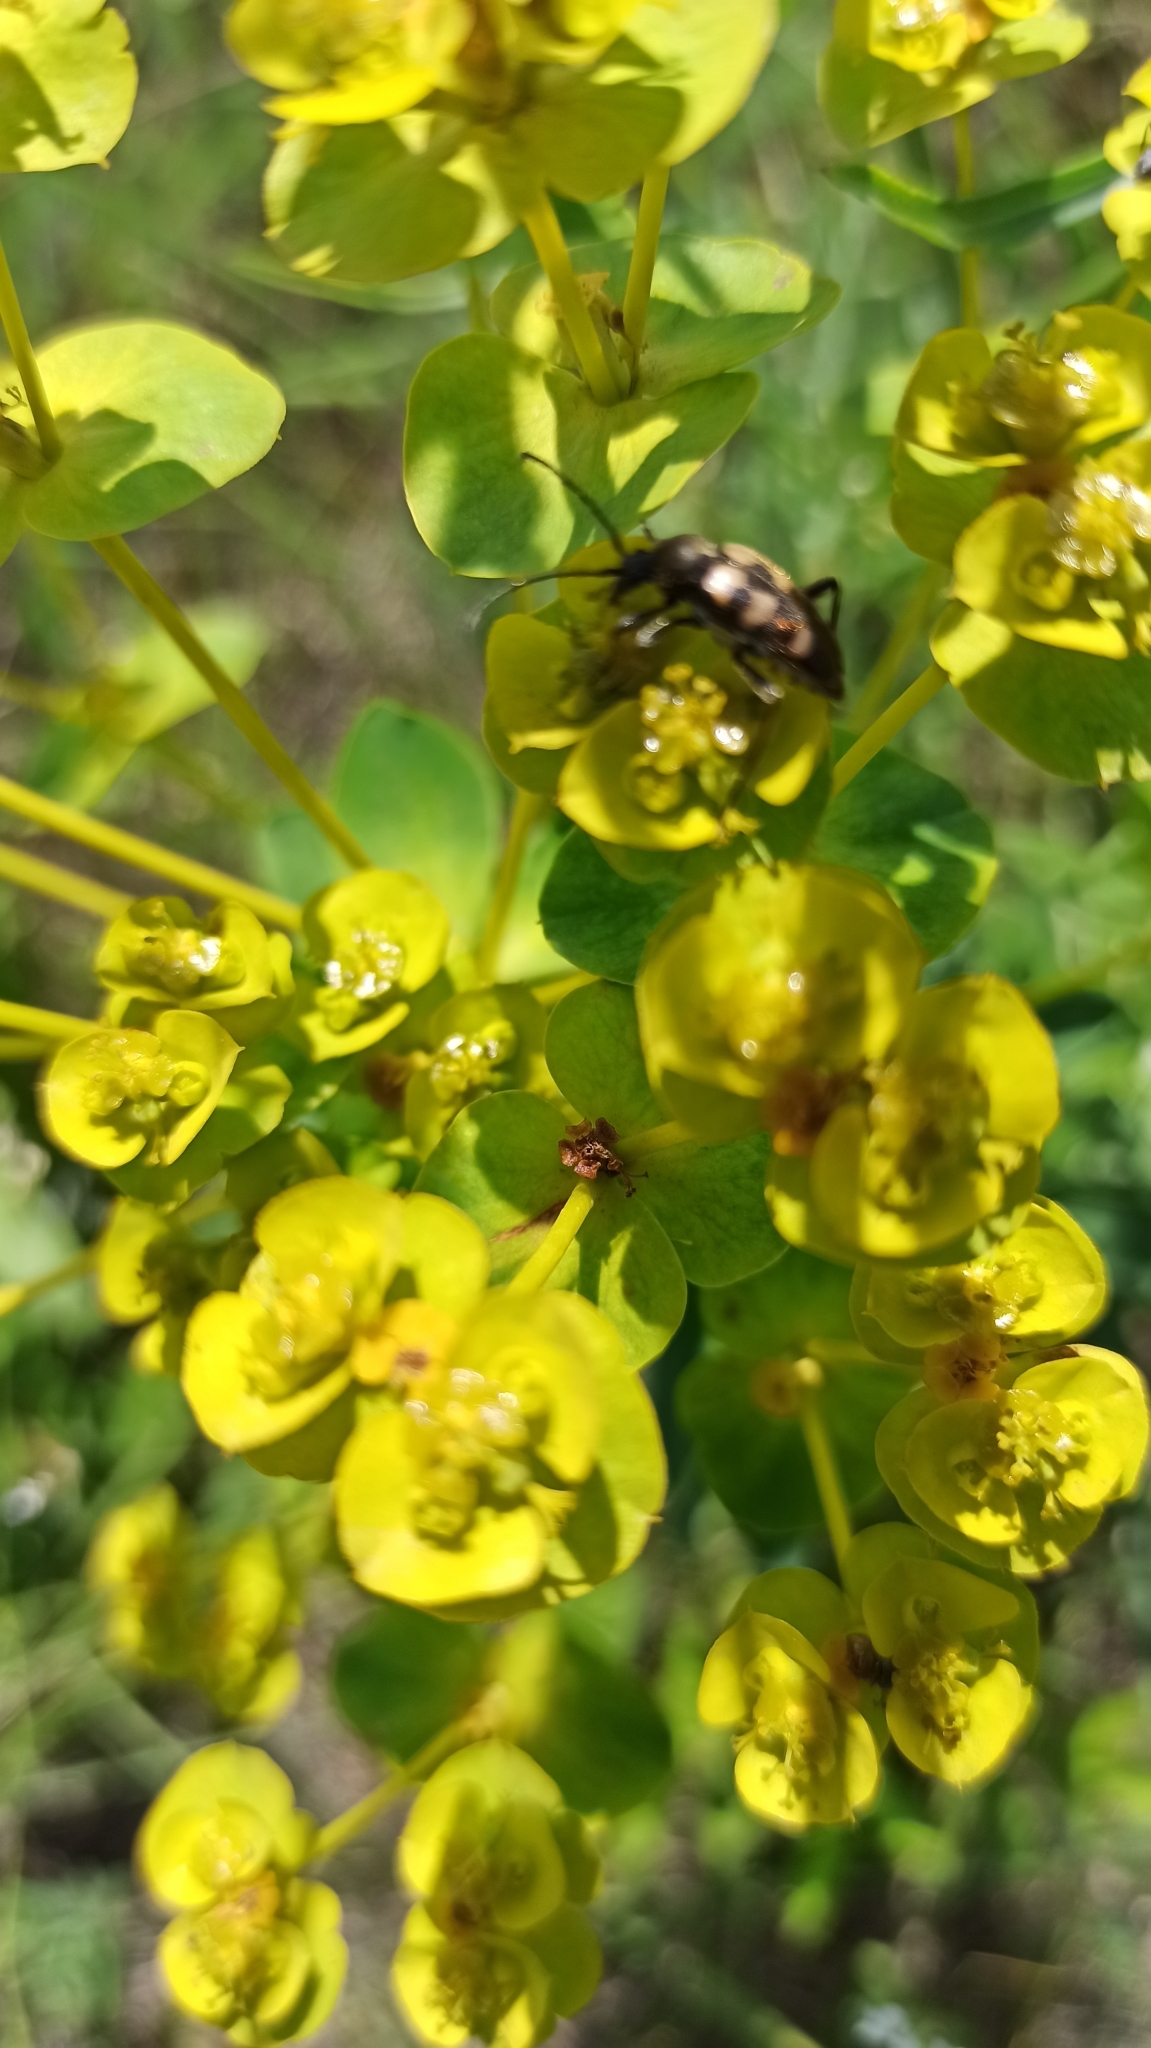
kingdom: Animalia
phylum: Arthropoda
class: Insecta
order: Coleoptera
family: Cerambycidae
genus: Pachytodes
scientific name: Pachytodes
